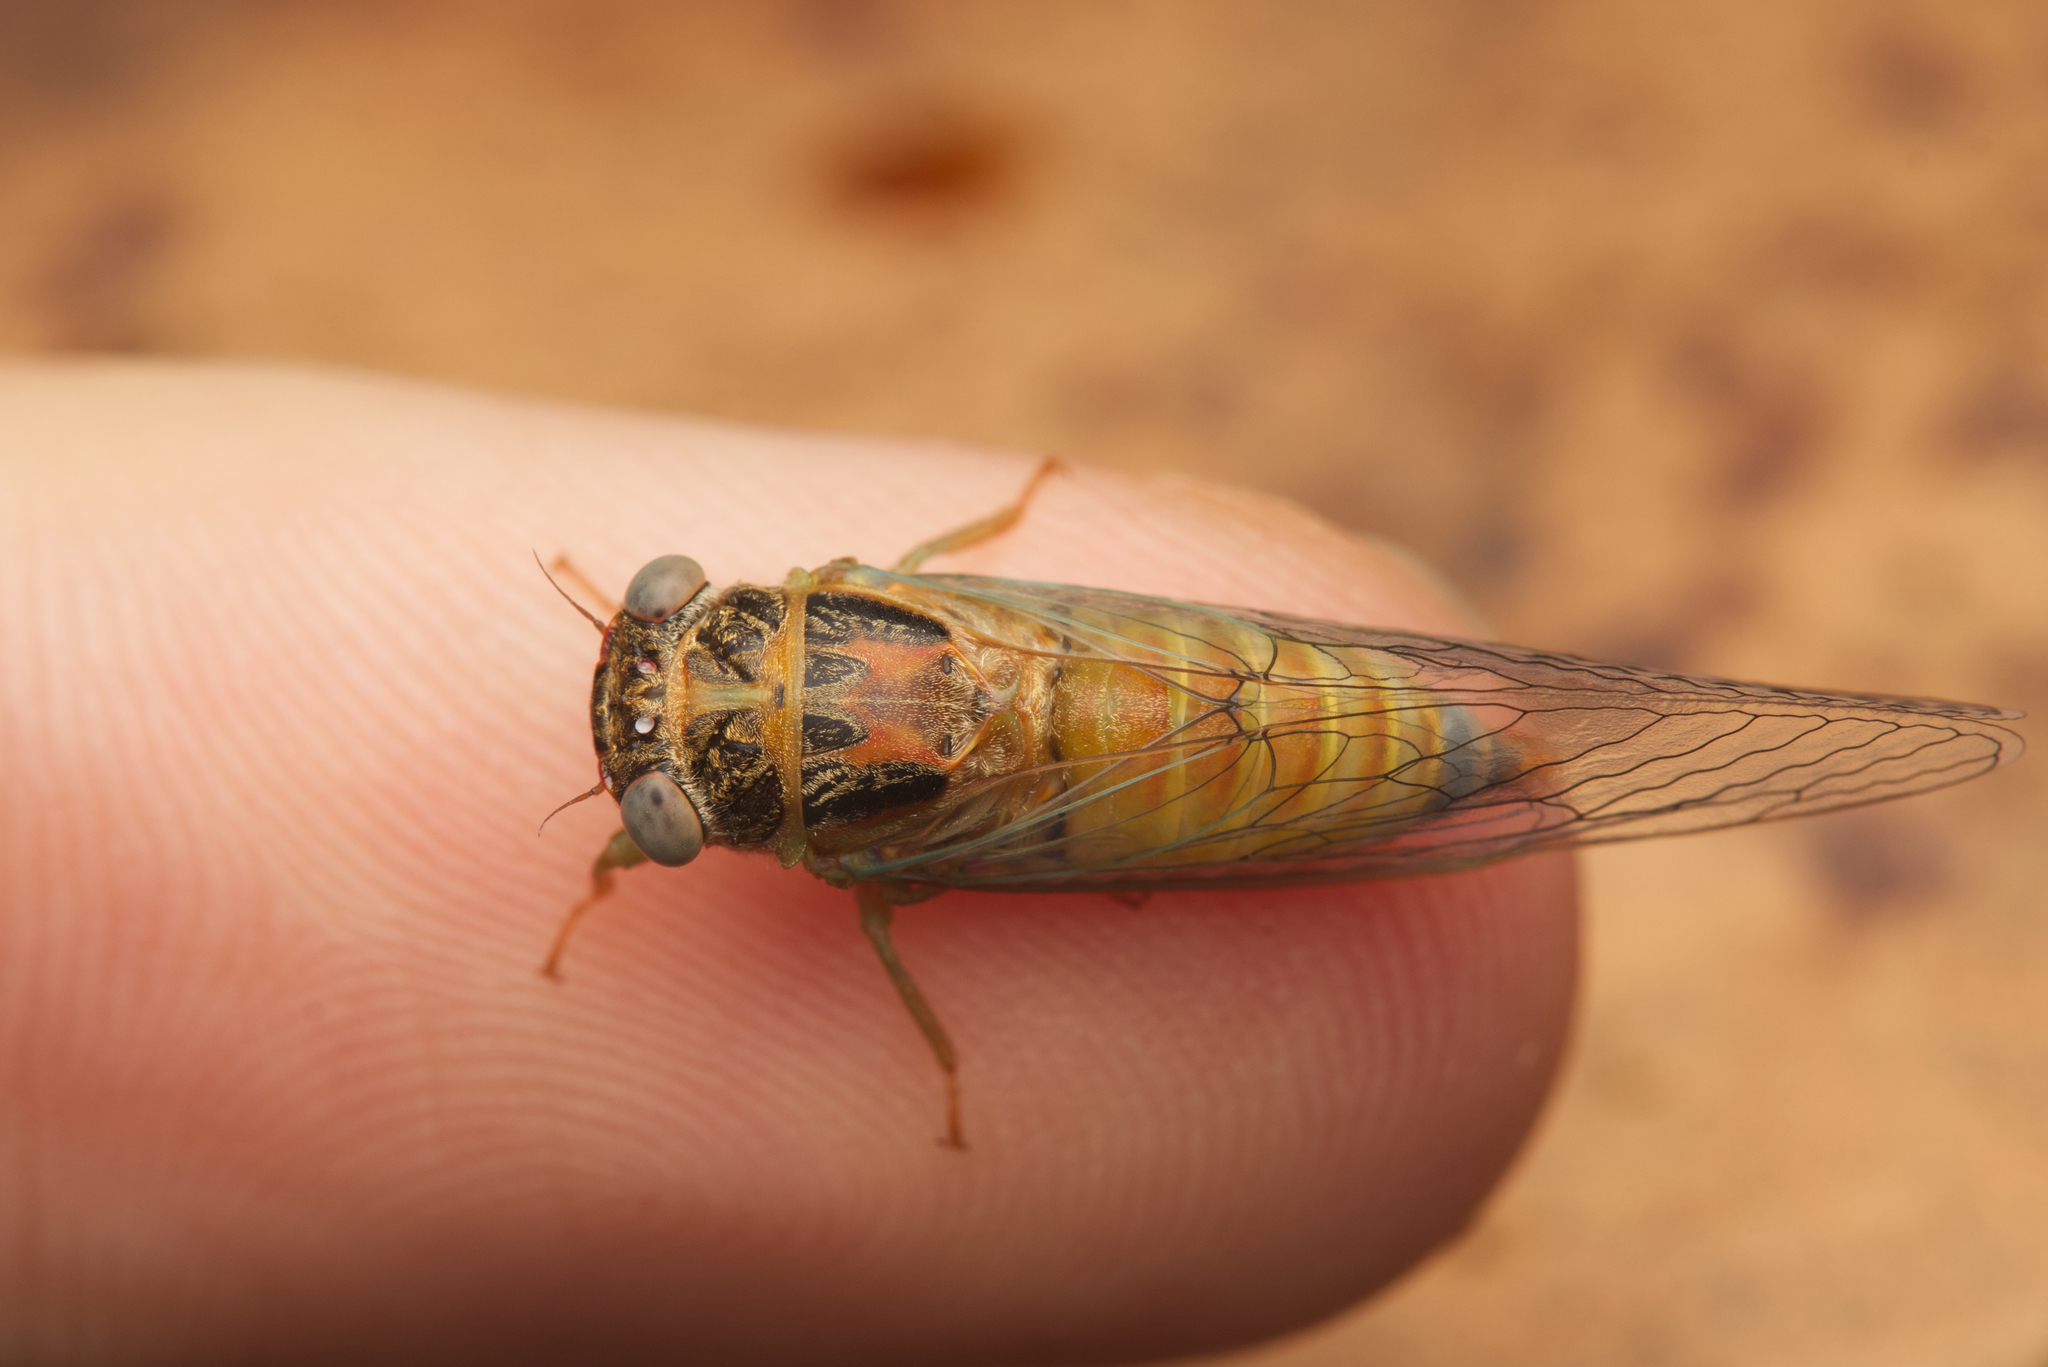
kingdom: Animalia
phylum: Arthropoda
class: Insecta
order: Hemiptera
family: Cicadidae
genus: Palapsalta
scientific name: Palapsalta eyrei
